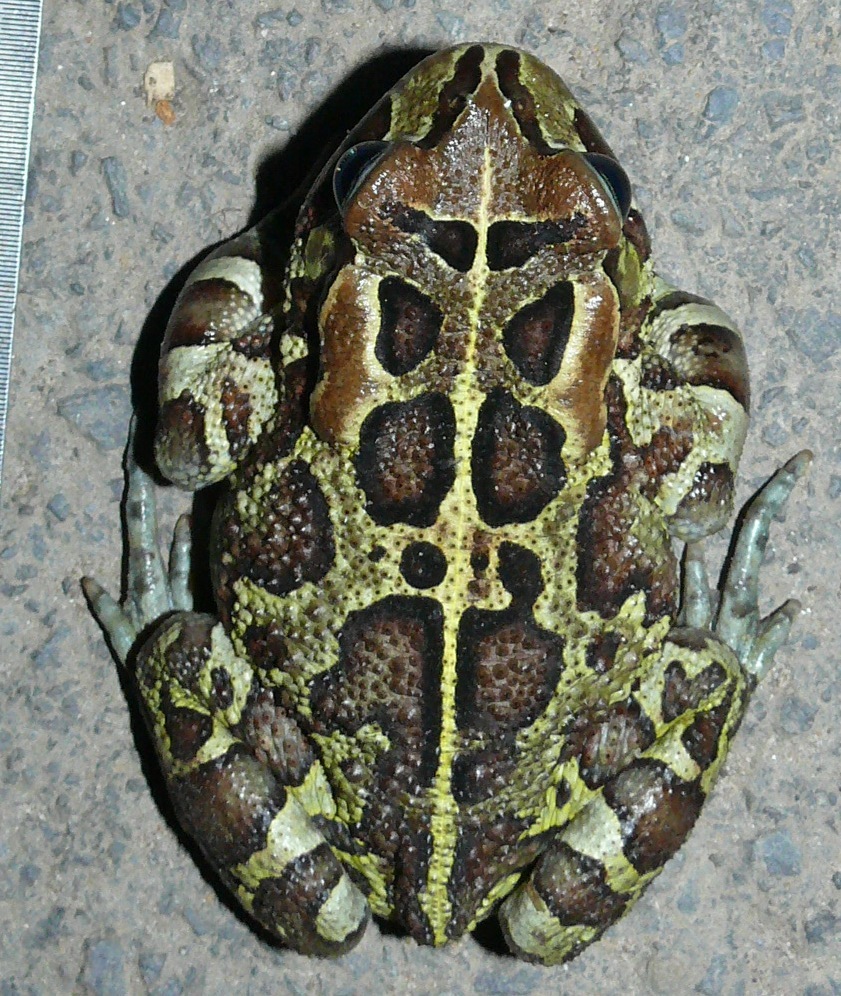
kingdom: Animalia
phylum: Chordata
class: Amphibia
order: Anura
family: Bufonidae
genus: Sclerophrys
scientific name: Sclerophrys pantherina
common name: Panther toad
